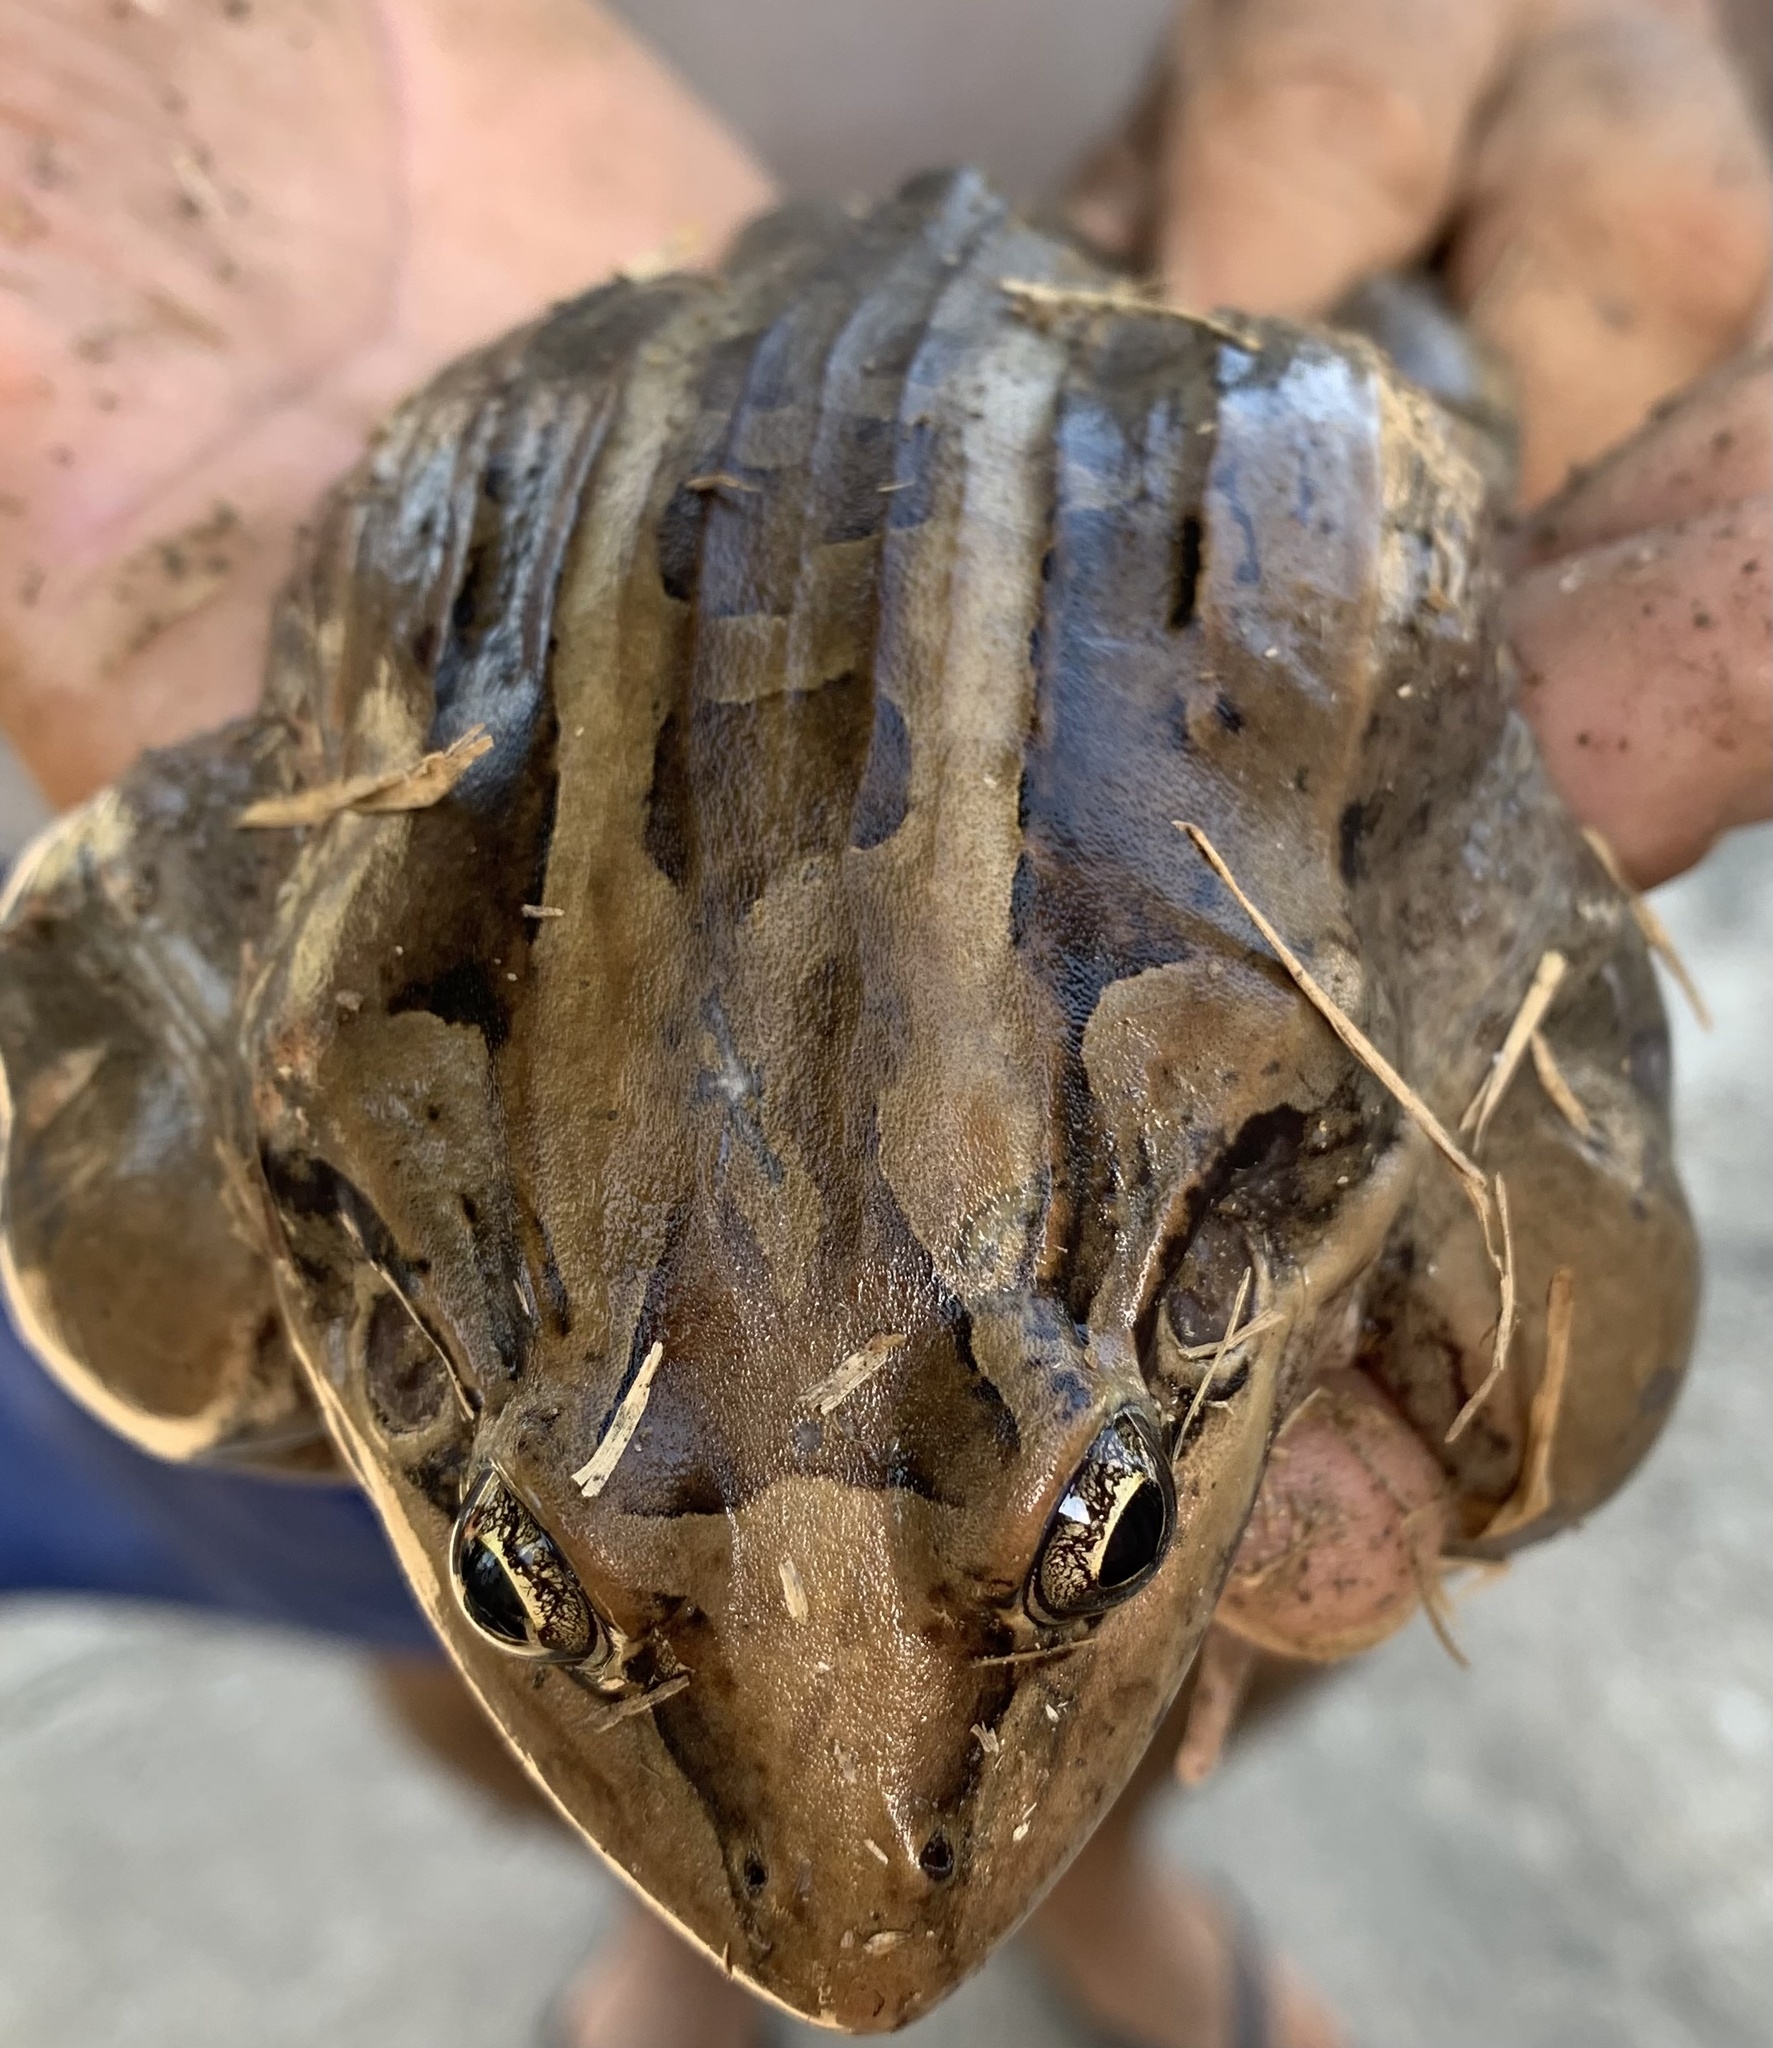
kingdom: Animalia
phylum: Chordata
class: Amphibia
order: Anura
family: Leptodactylidae
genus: Leptodactylus
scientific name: Leptodactylus latrans
